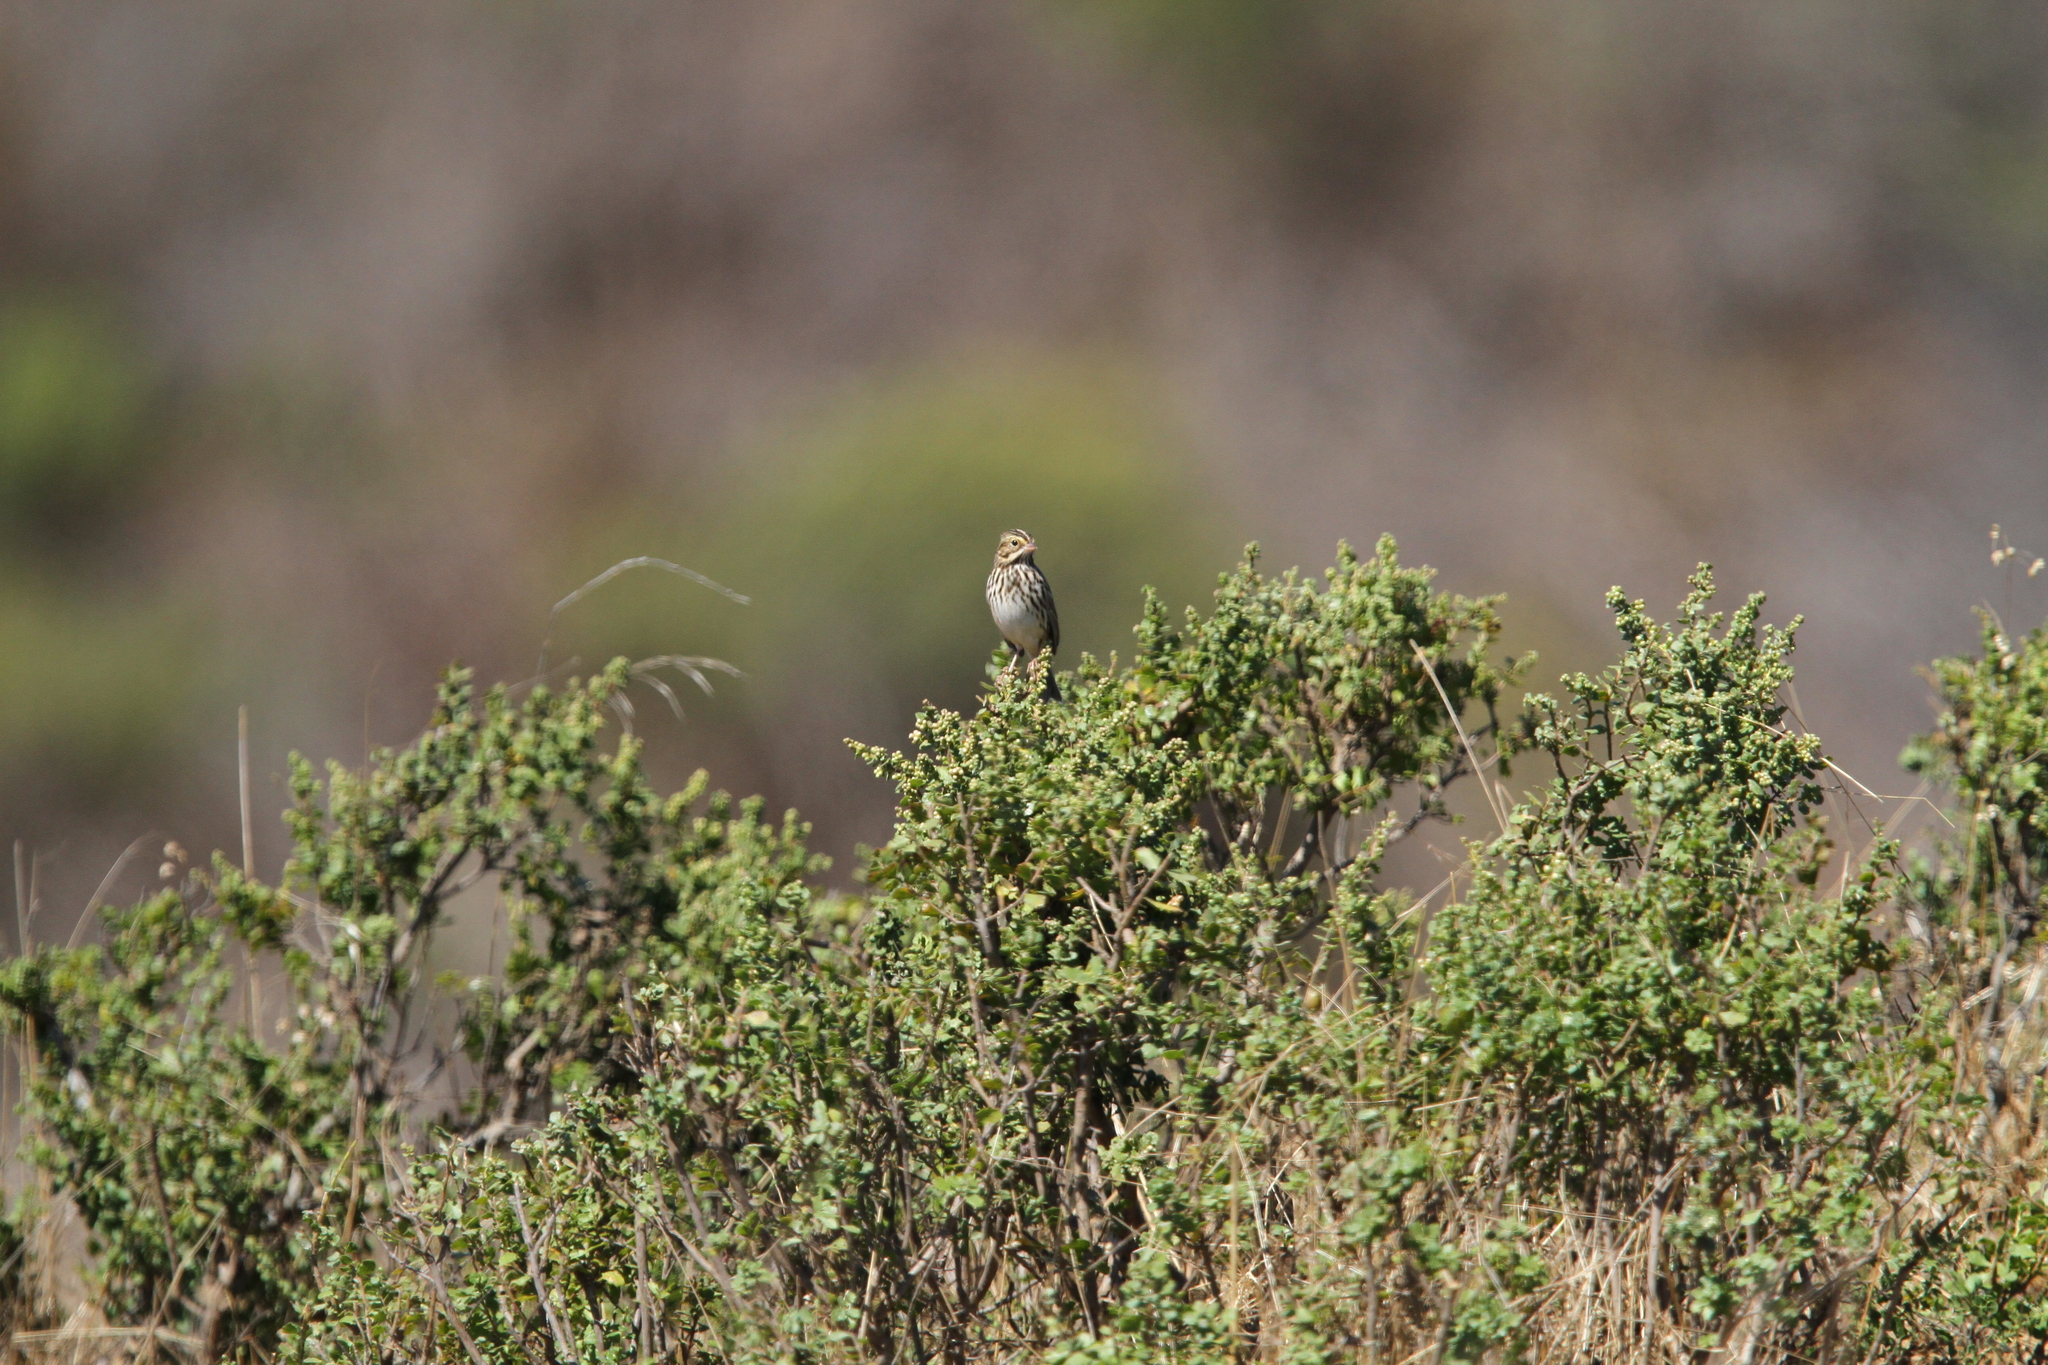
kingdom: Animalia
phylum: Chordata
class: Aves
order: Passeriformes
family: Passerellidae
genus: Passerculus
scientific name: Passerculus sandwichensis
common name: Savannah sparrow
